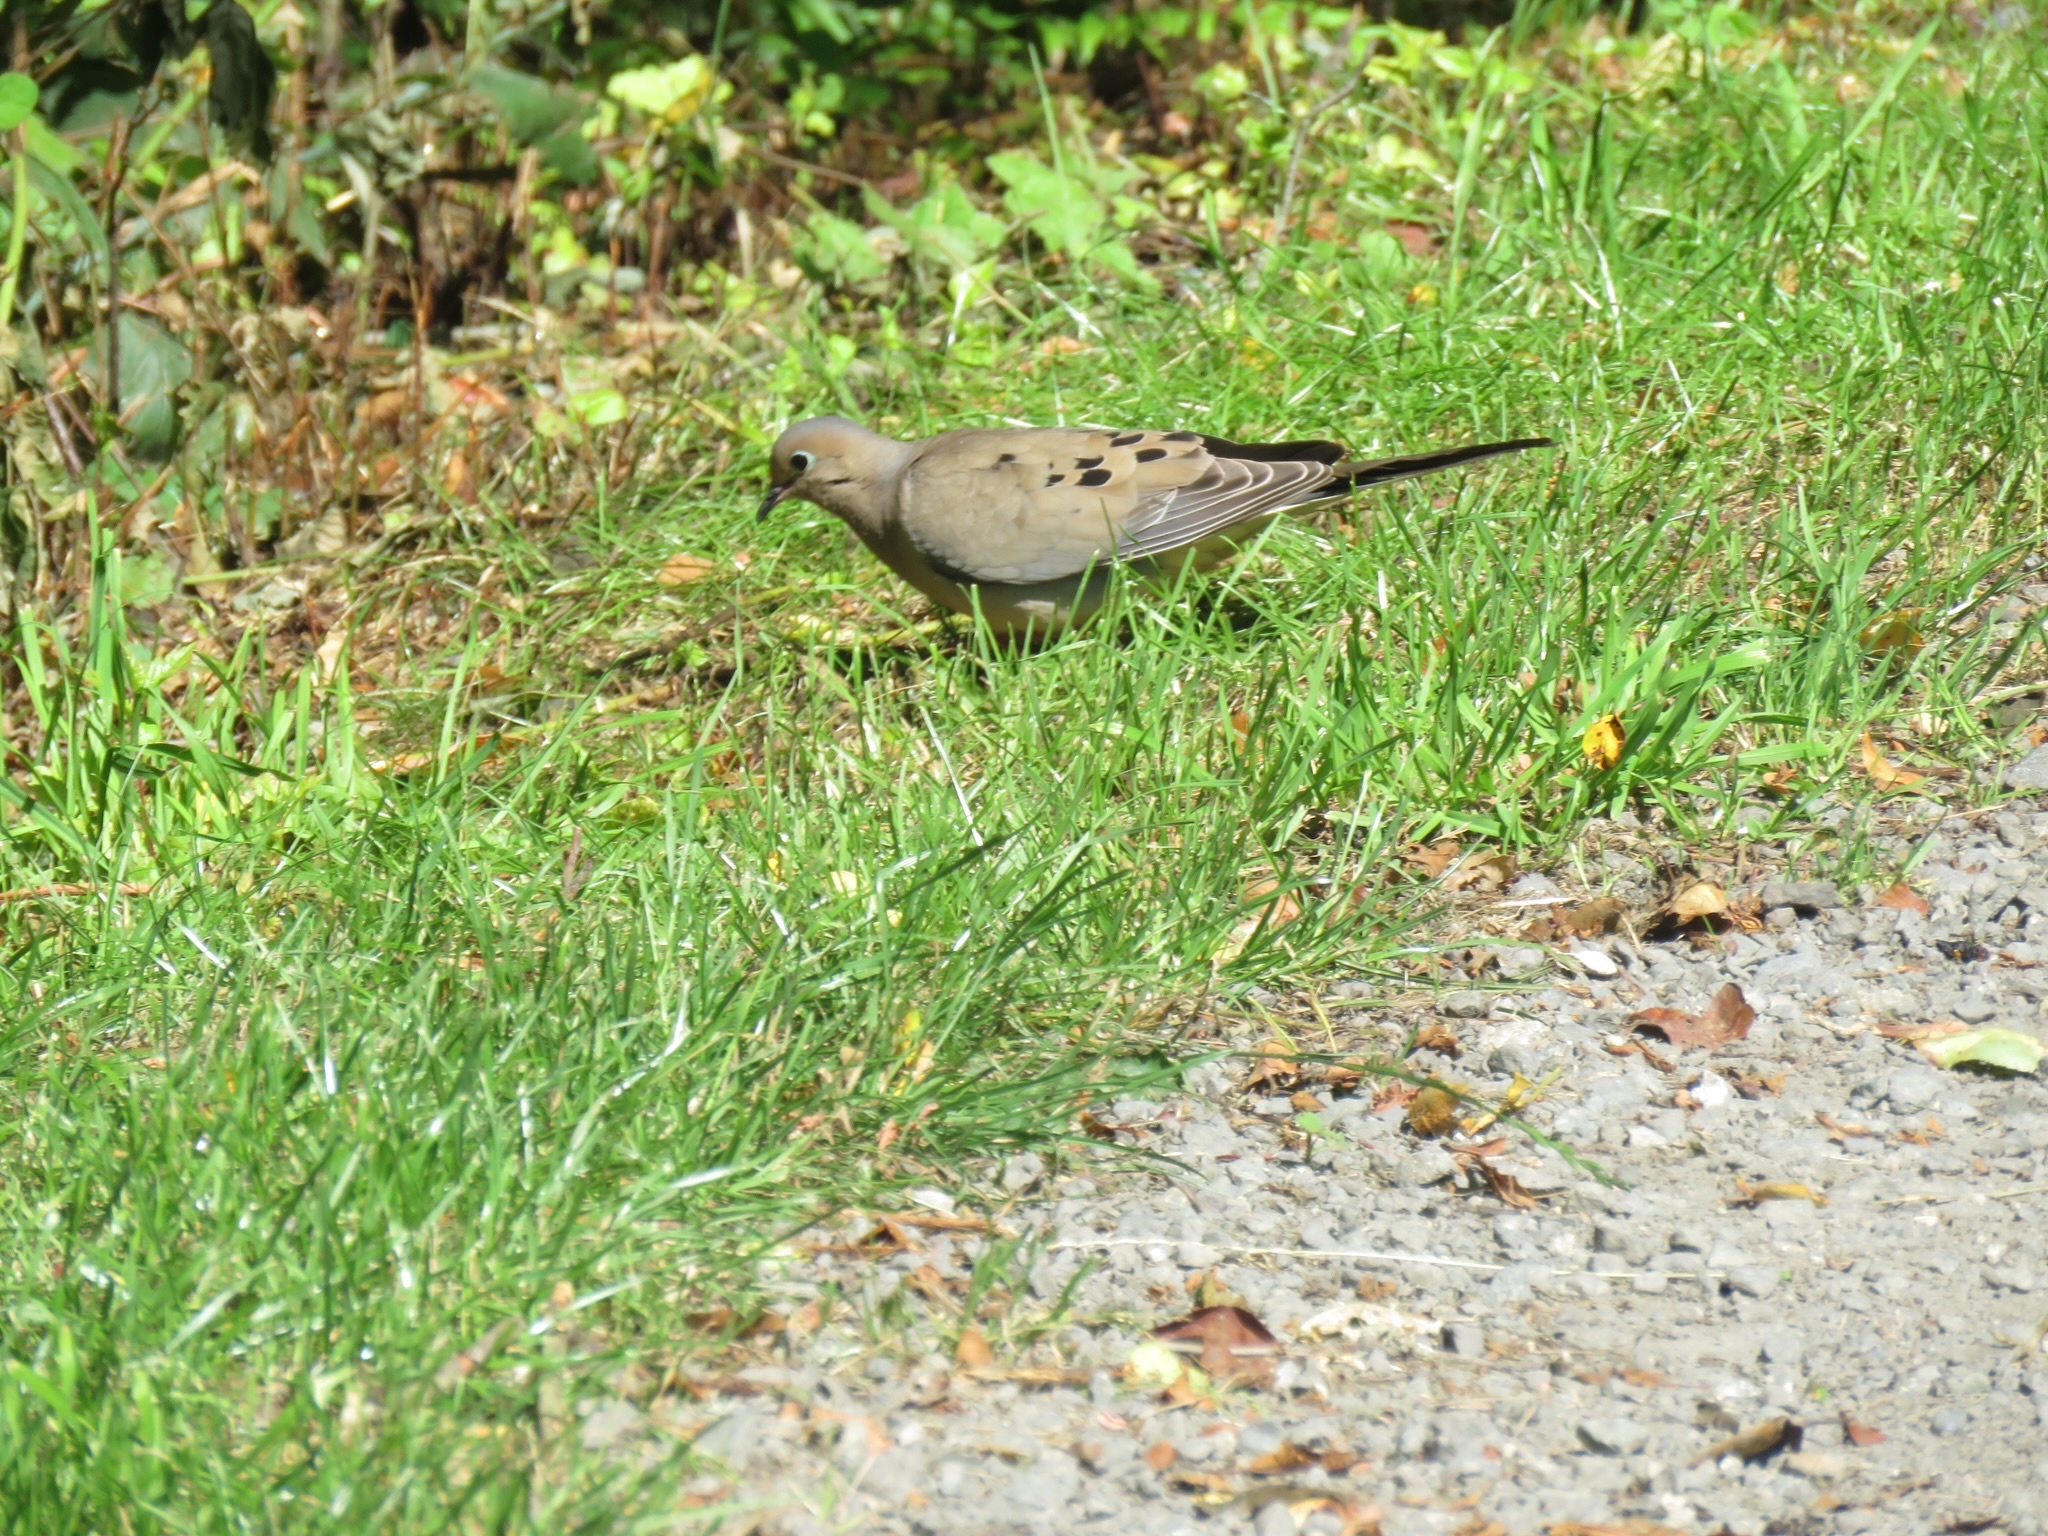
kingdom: Animalia
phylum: Chordata
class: Aves
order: Columbiformes
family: Columbidae
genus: Zenaida
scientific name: Zenaida macroura
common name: Mourning dove
